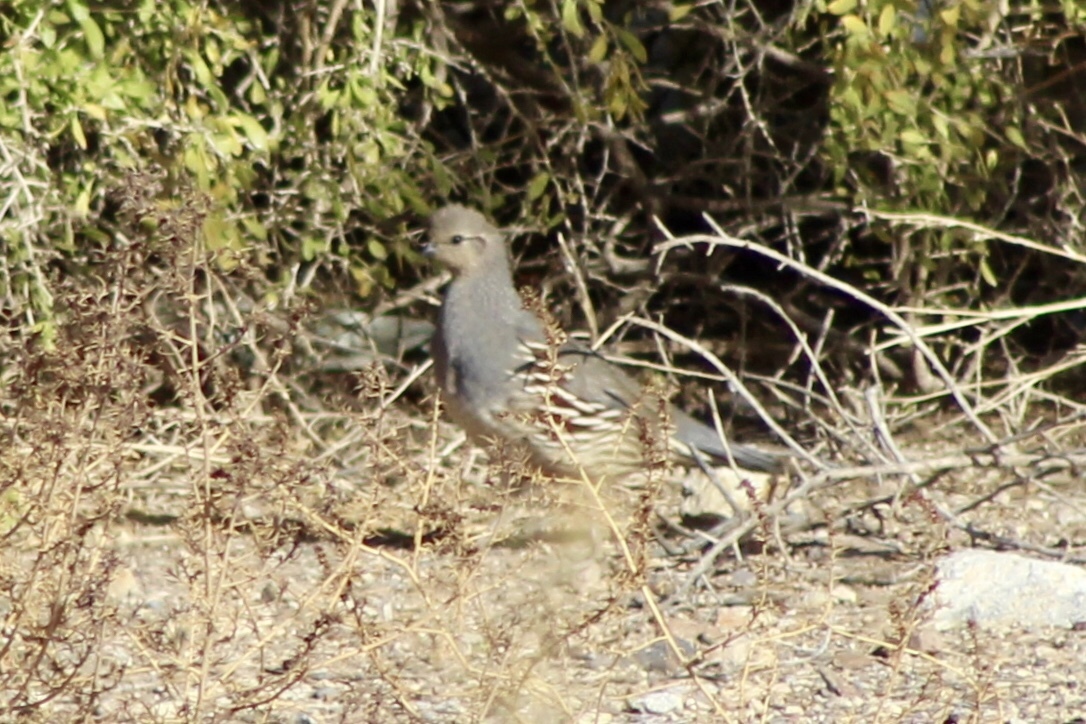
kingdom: Animalia
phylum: Chordata
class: Aves
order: Galliformes
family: Odontophoridae
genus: Callipepla
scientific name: Callipepla gambelii
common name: Gambel's quail
